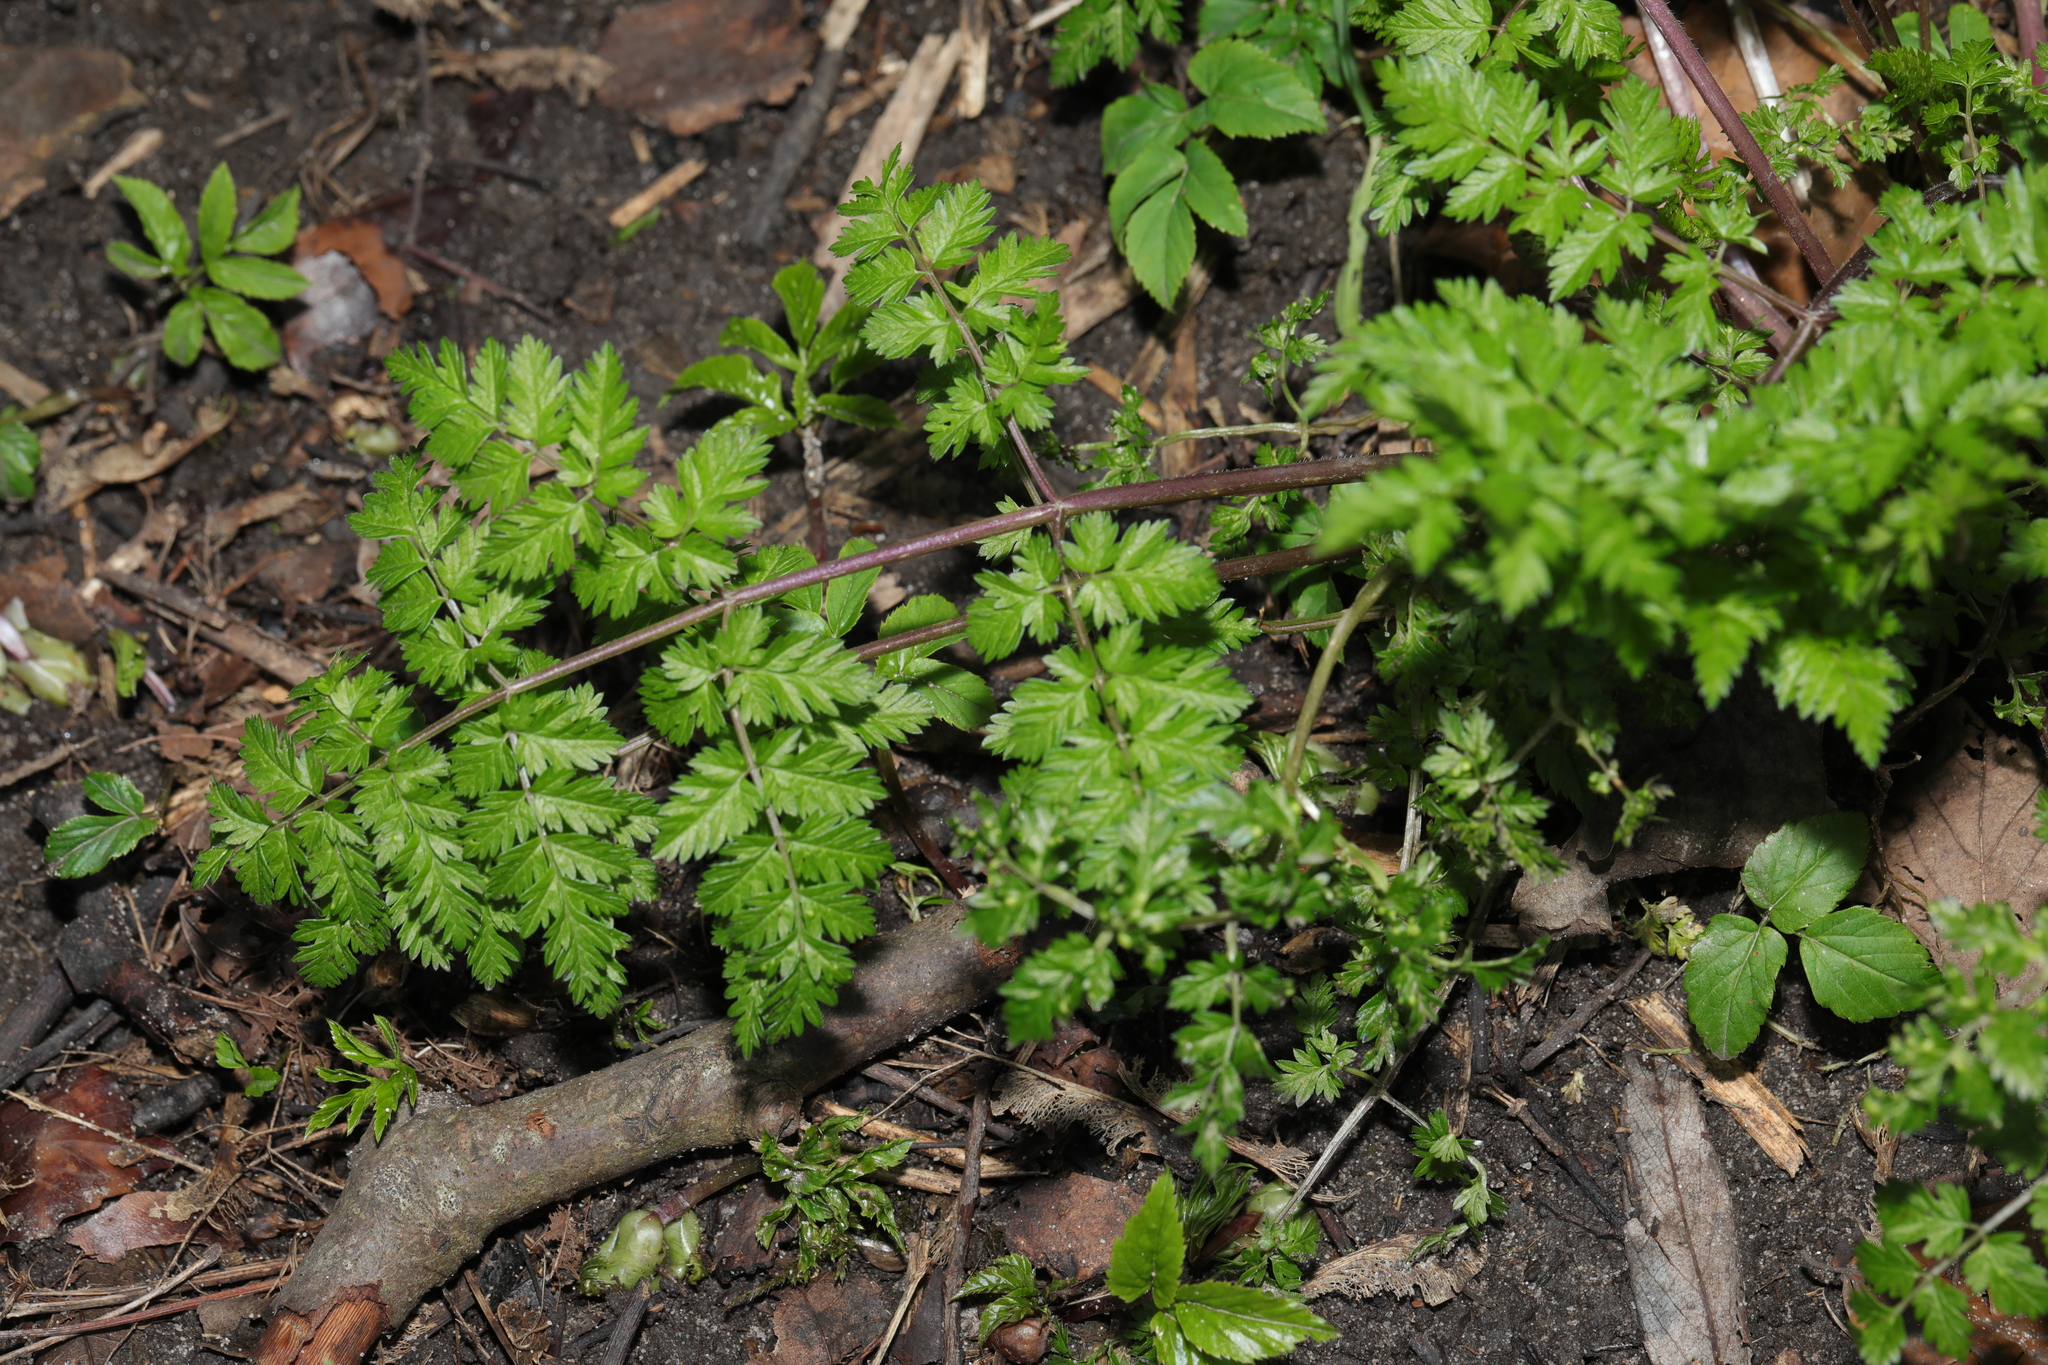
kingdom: Plantae
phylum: Tracheophyta
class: Magnoliopsida
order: Apiales
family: Apiaceae
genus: Anthriscus
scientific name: Anthriscus sylvestris
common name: Cow parsley
